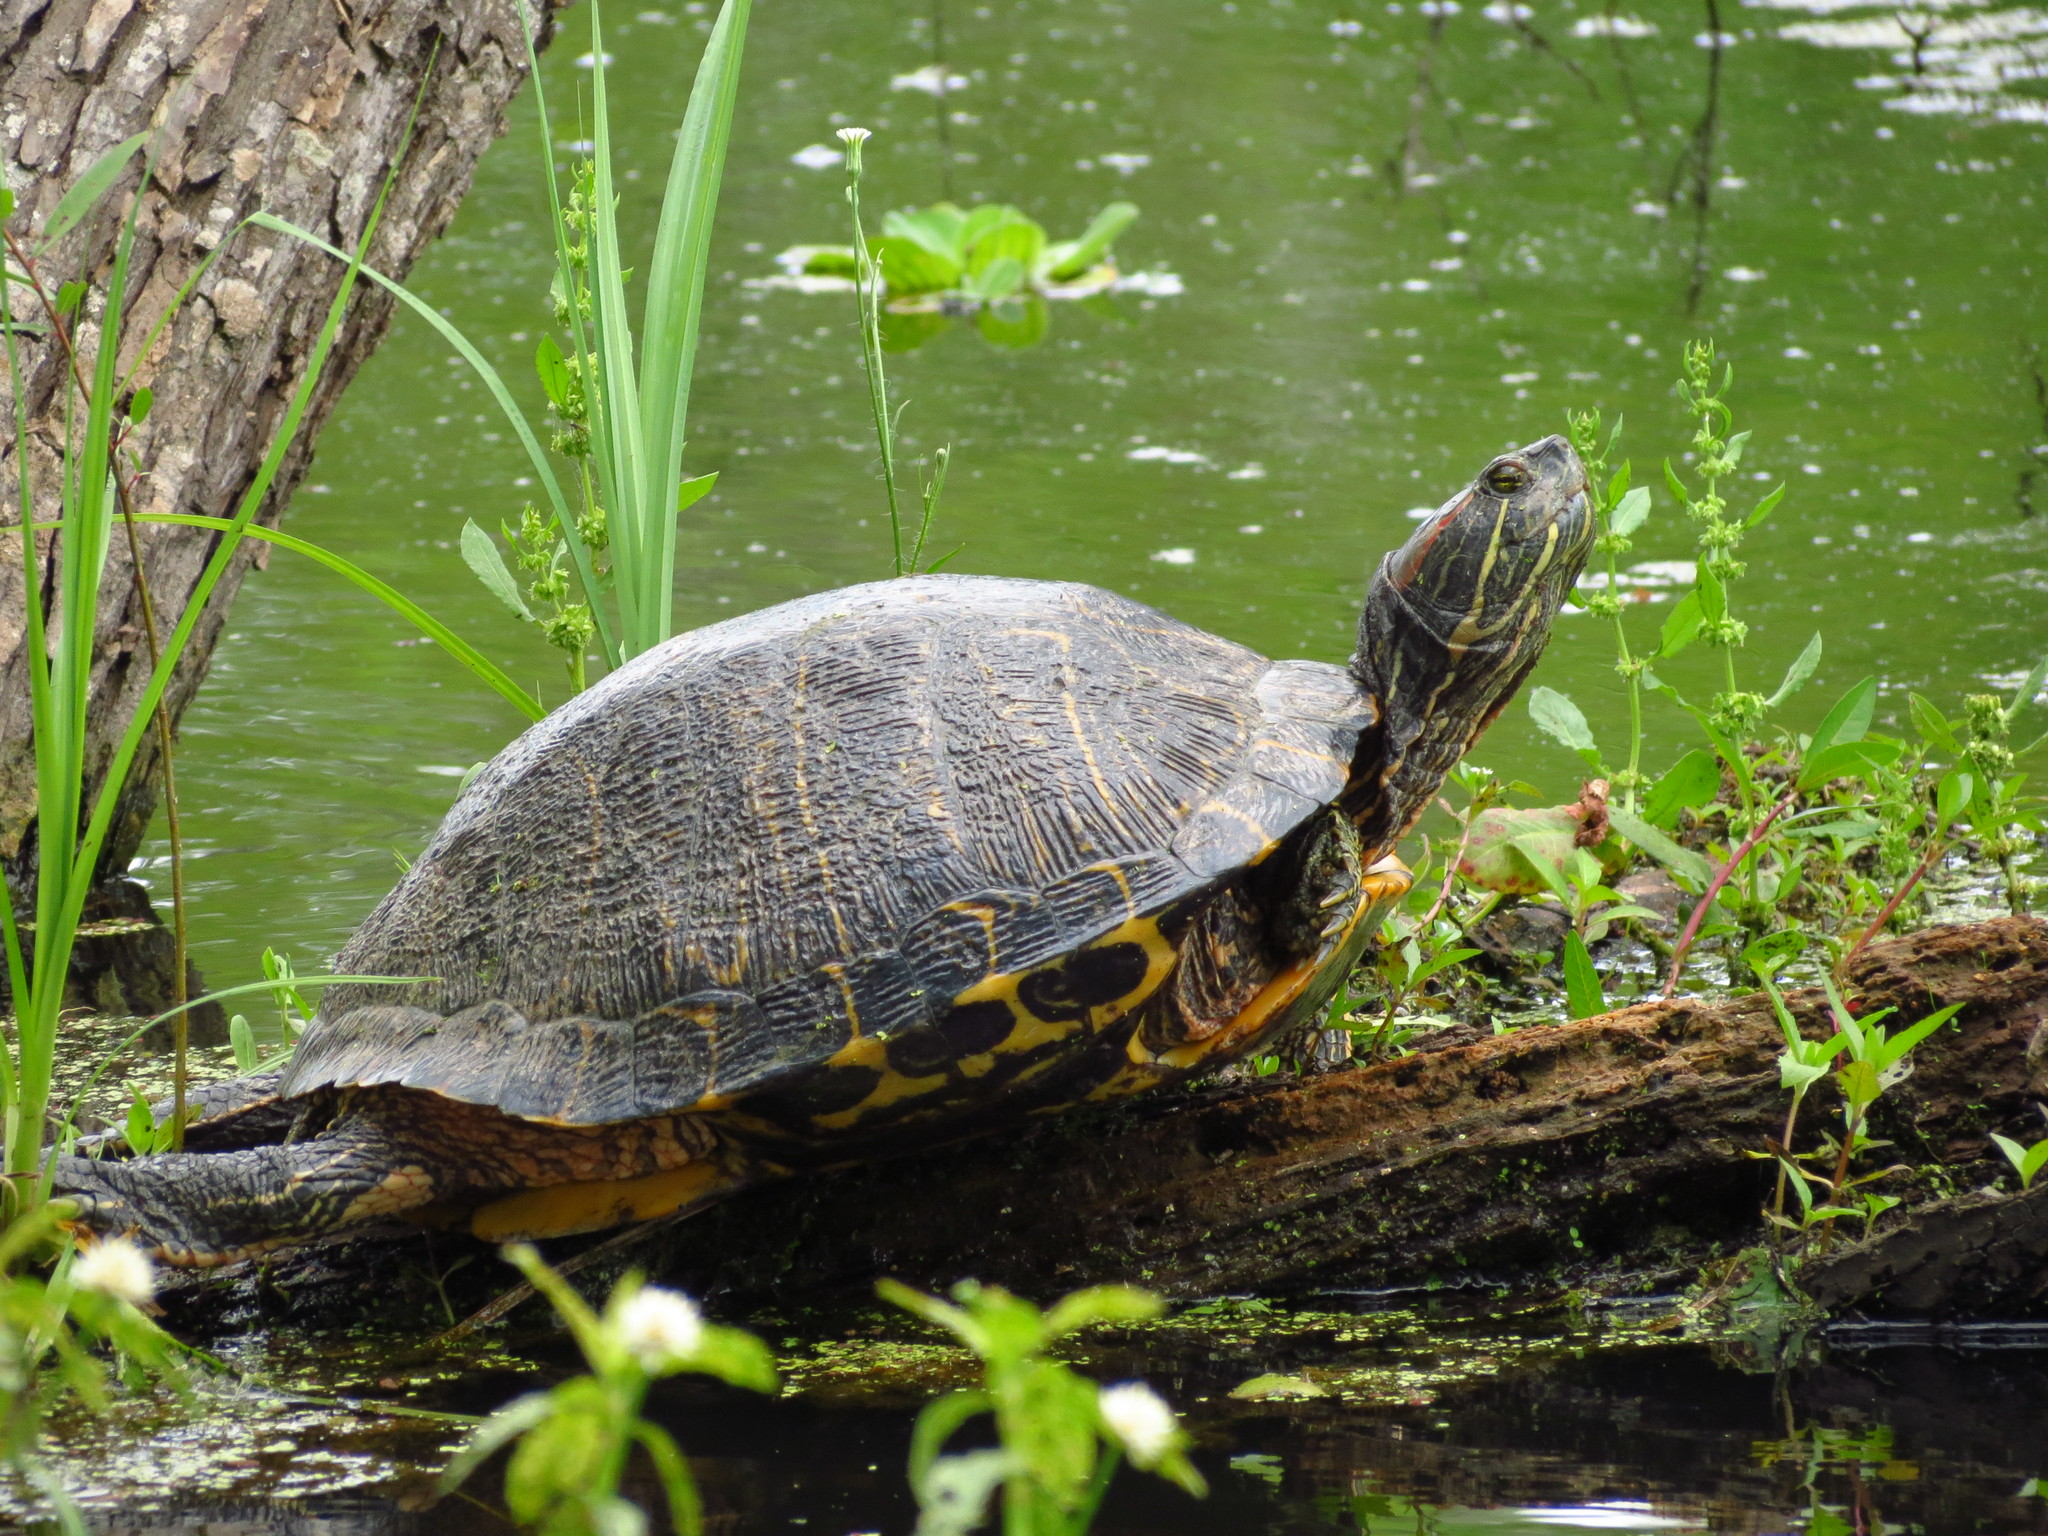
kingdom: Animalia
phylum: Chordata
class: Testudines
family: Emydidae
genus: Trachemys
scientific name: Trachemys scripta
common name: Slider
